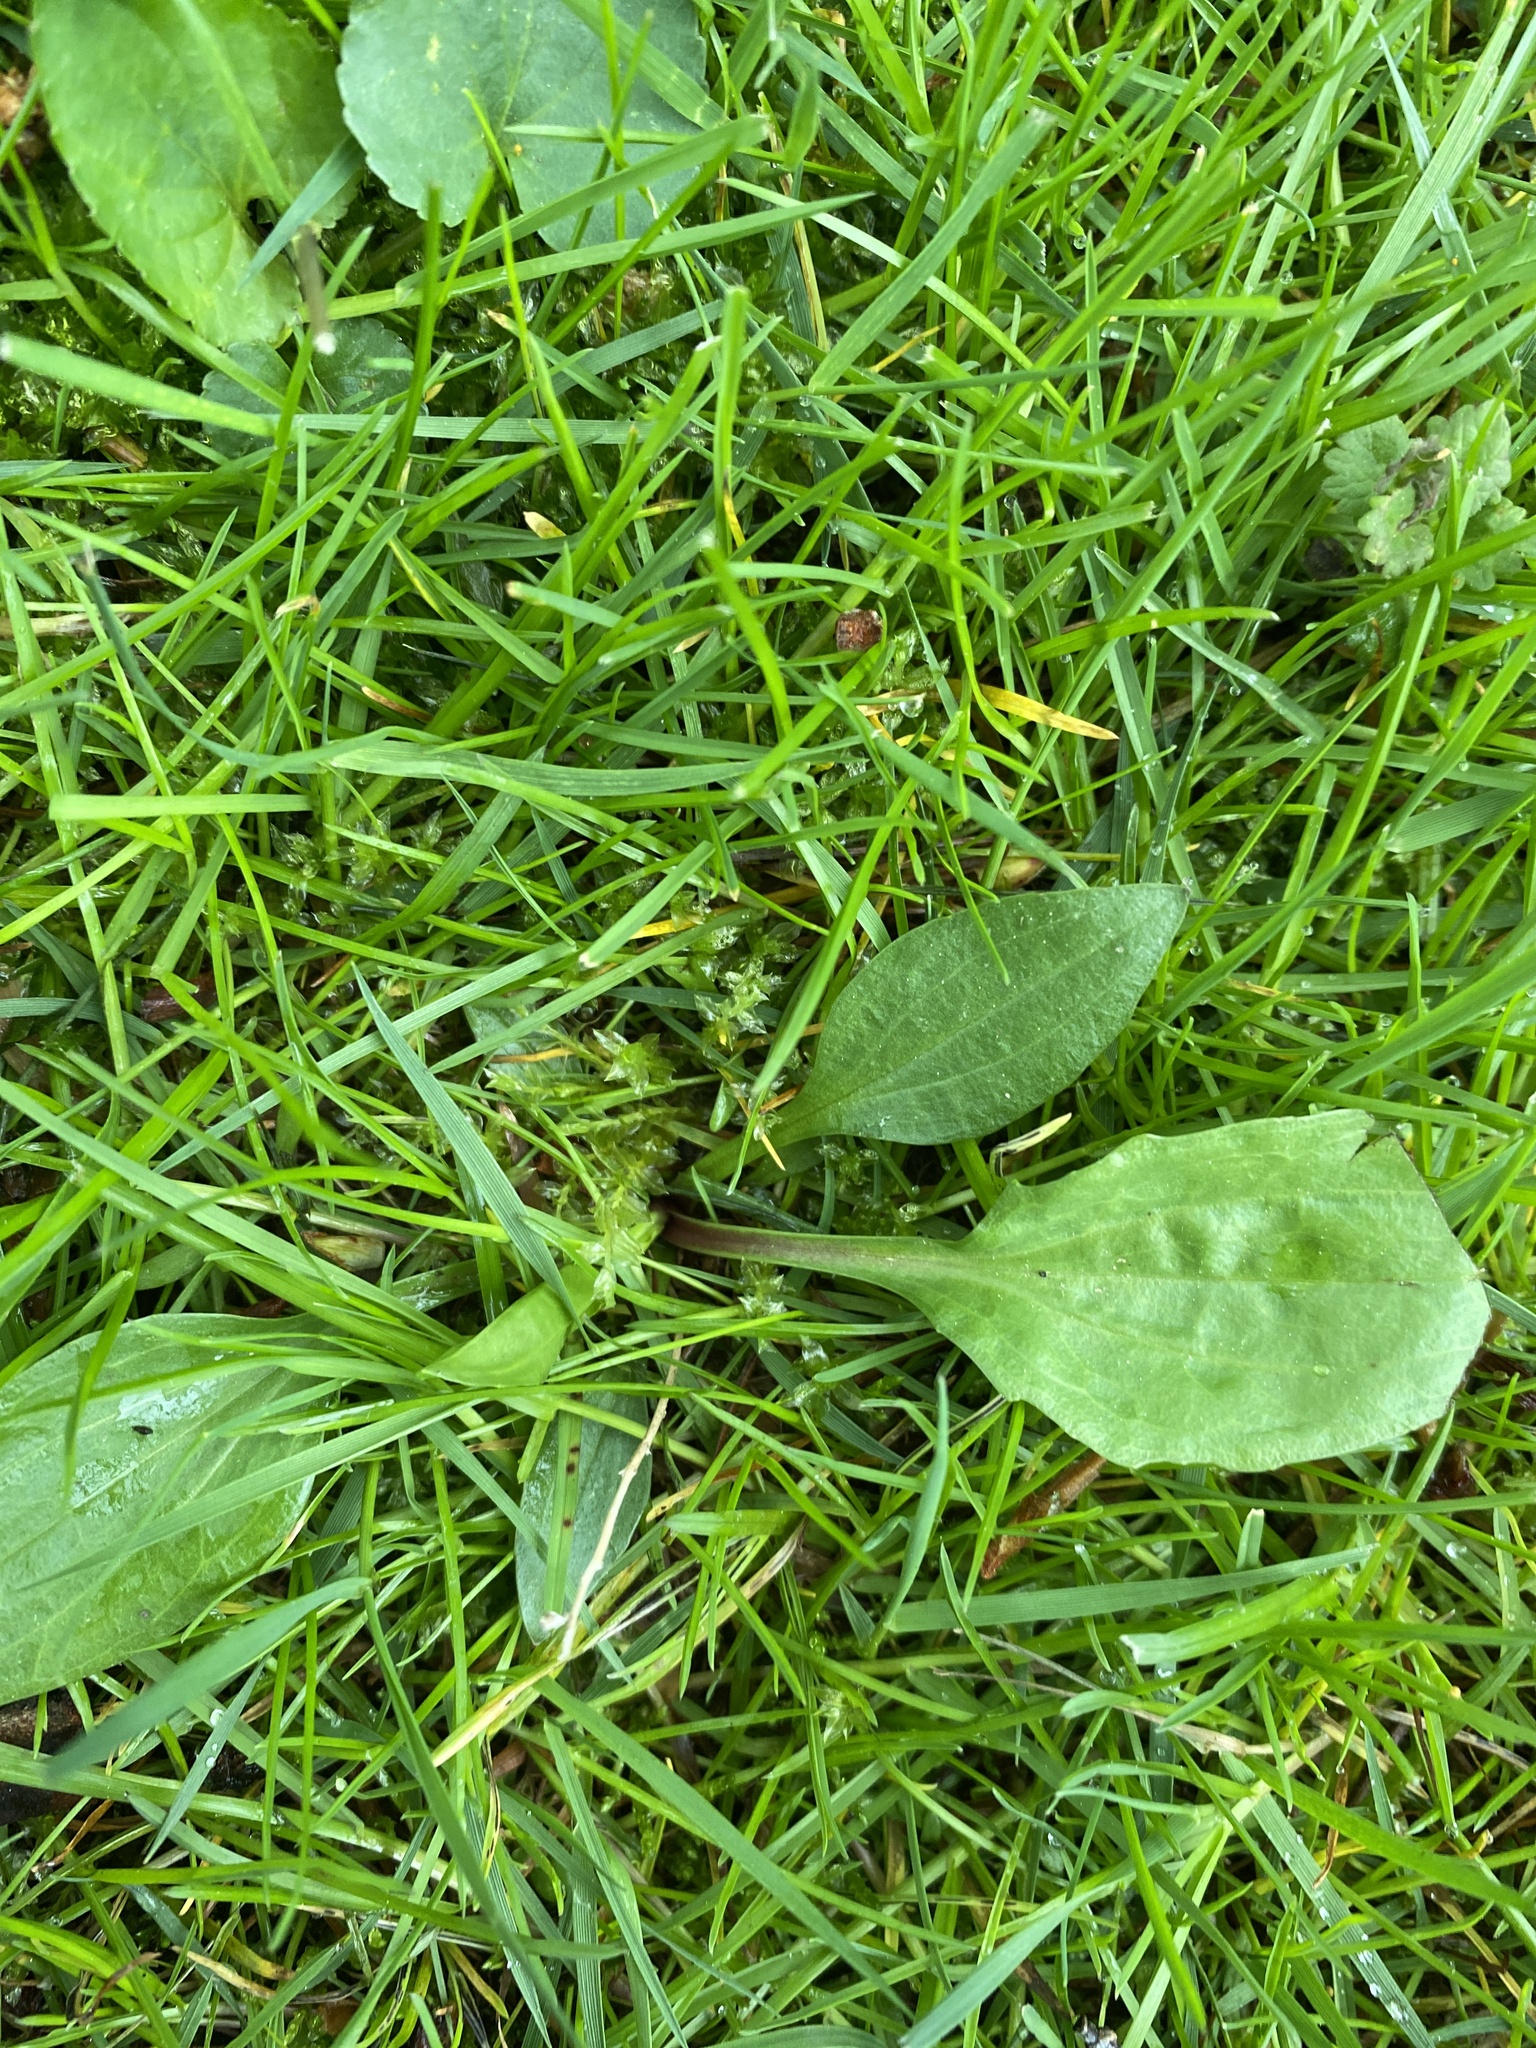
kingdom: Plantae
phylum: Tracheophyta
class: Magnoliopsida
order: Lamiales
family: Plantaginaceae
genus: Plantago
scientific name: Plantago rugelii
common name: American plantain
